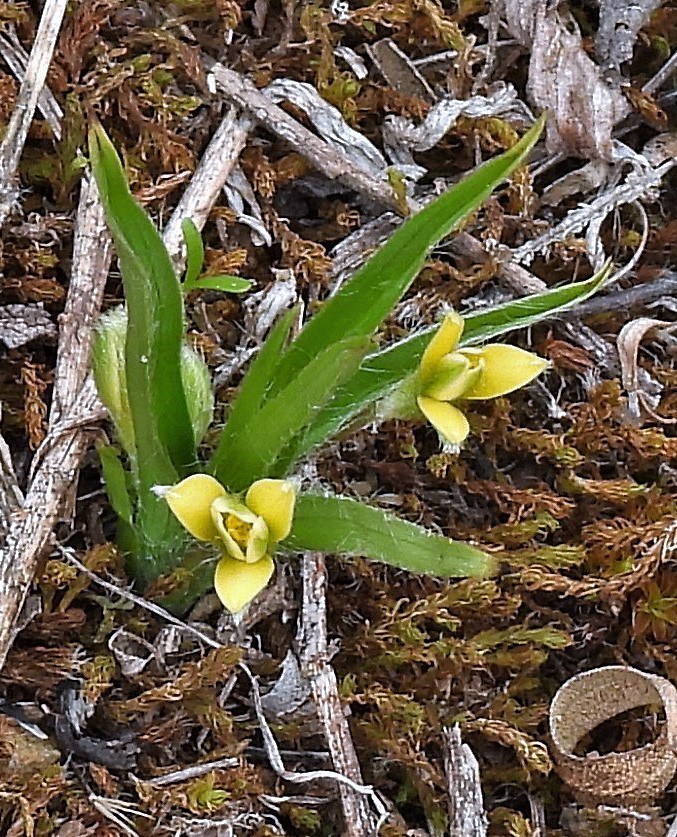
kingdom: Plantae
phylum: Tracheophyta
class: Liliopsida
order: Asparagales
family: Hypoxidaceae
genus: Hypoxis
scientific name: Hypoxis decumbens
